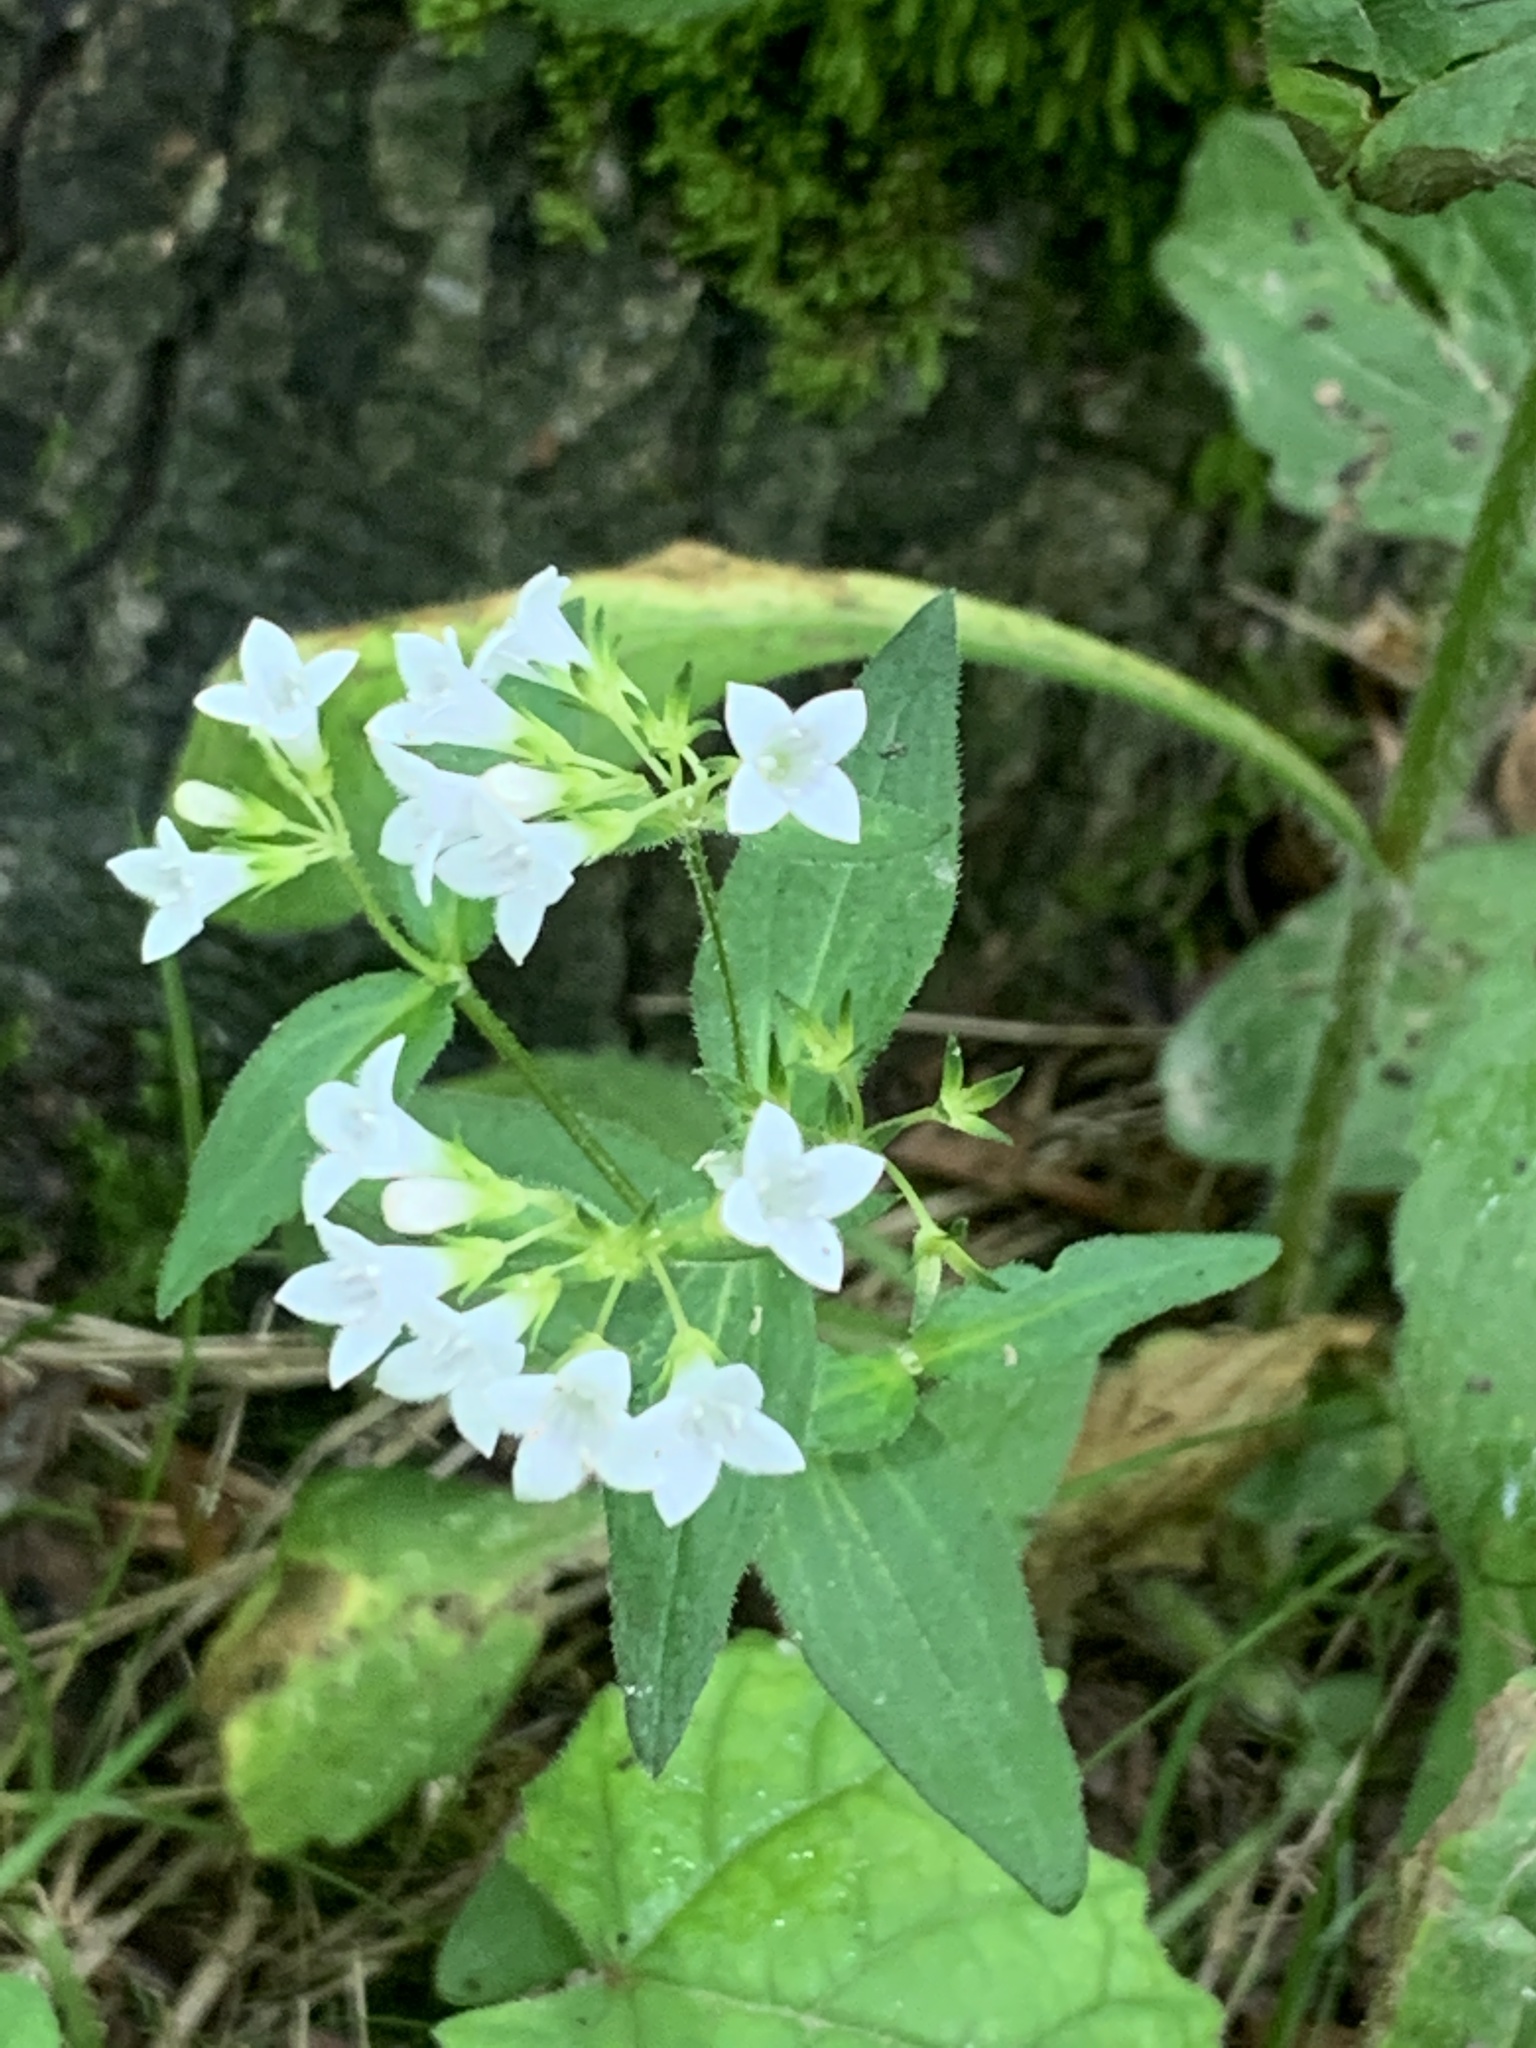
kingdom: Plantae
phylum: Tracheophyta
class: Magnoliopsida
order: Gentianales
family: Rubiaceae
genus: Houstonia
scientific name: Houstonia purpurea
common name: Summer bluet
